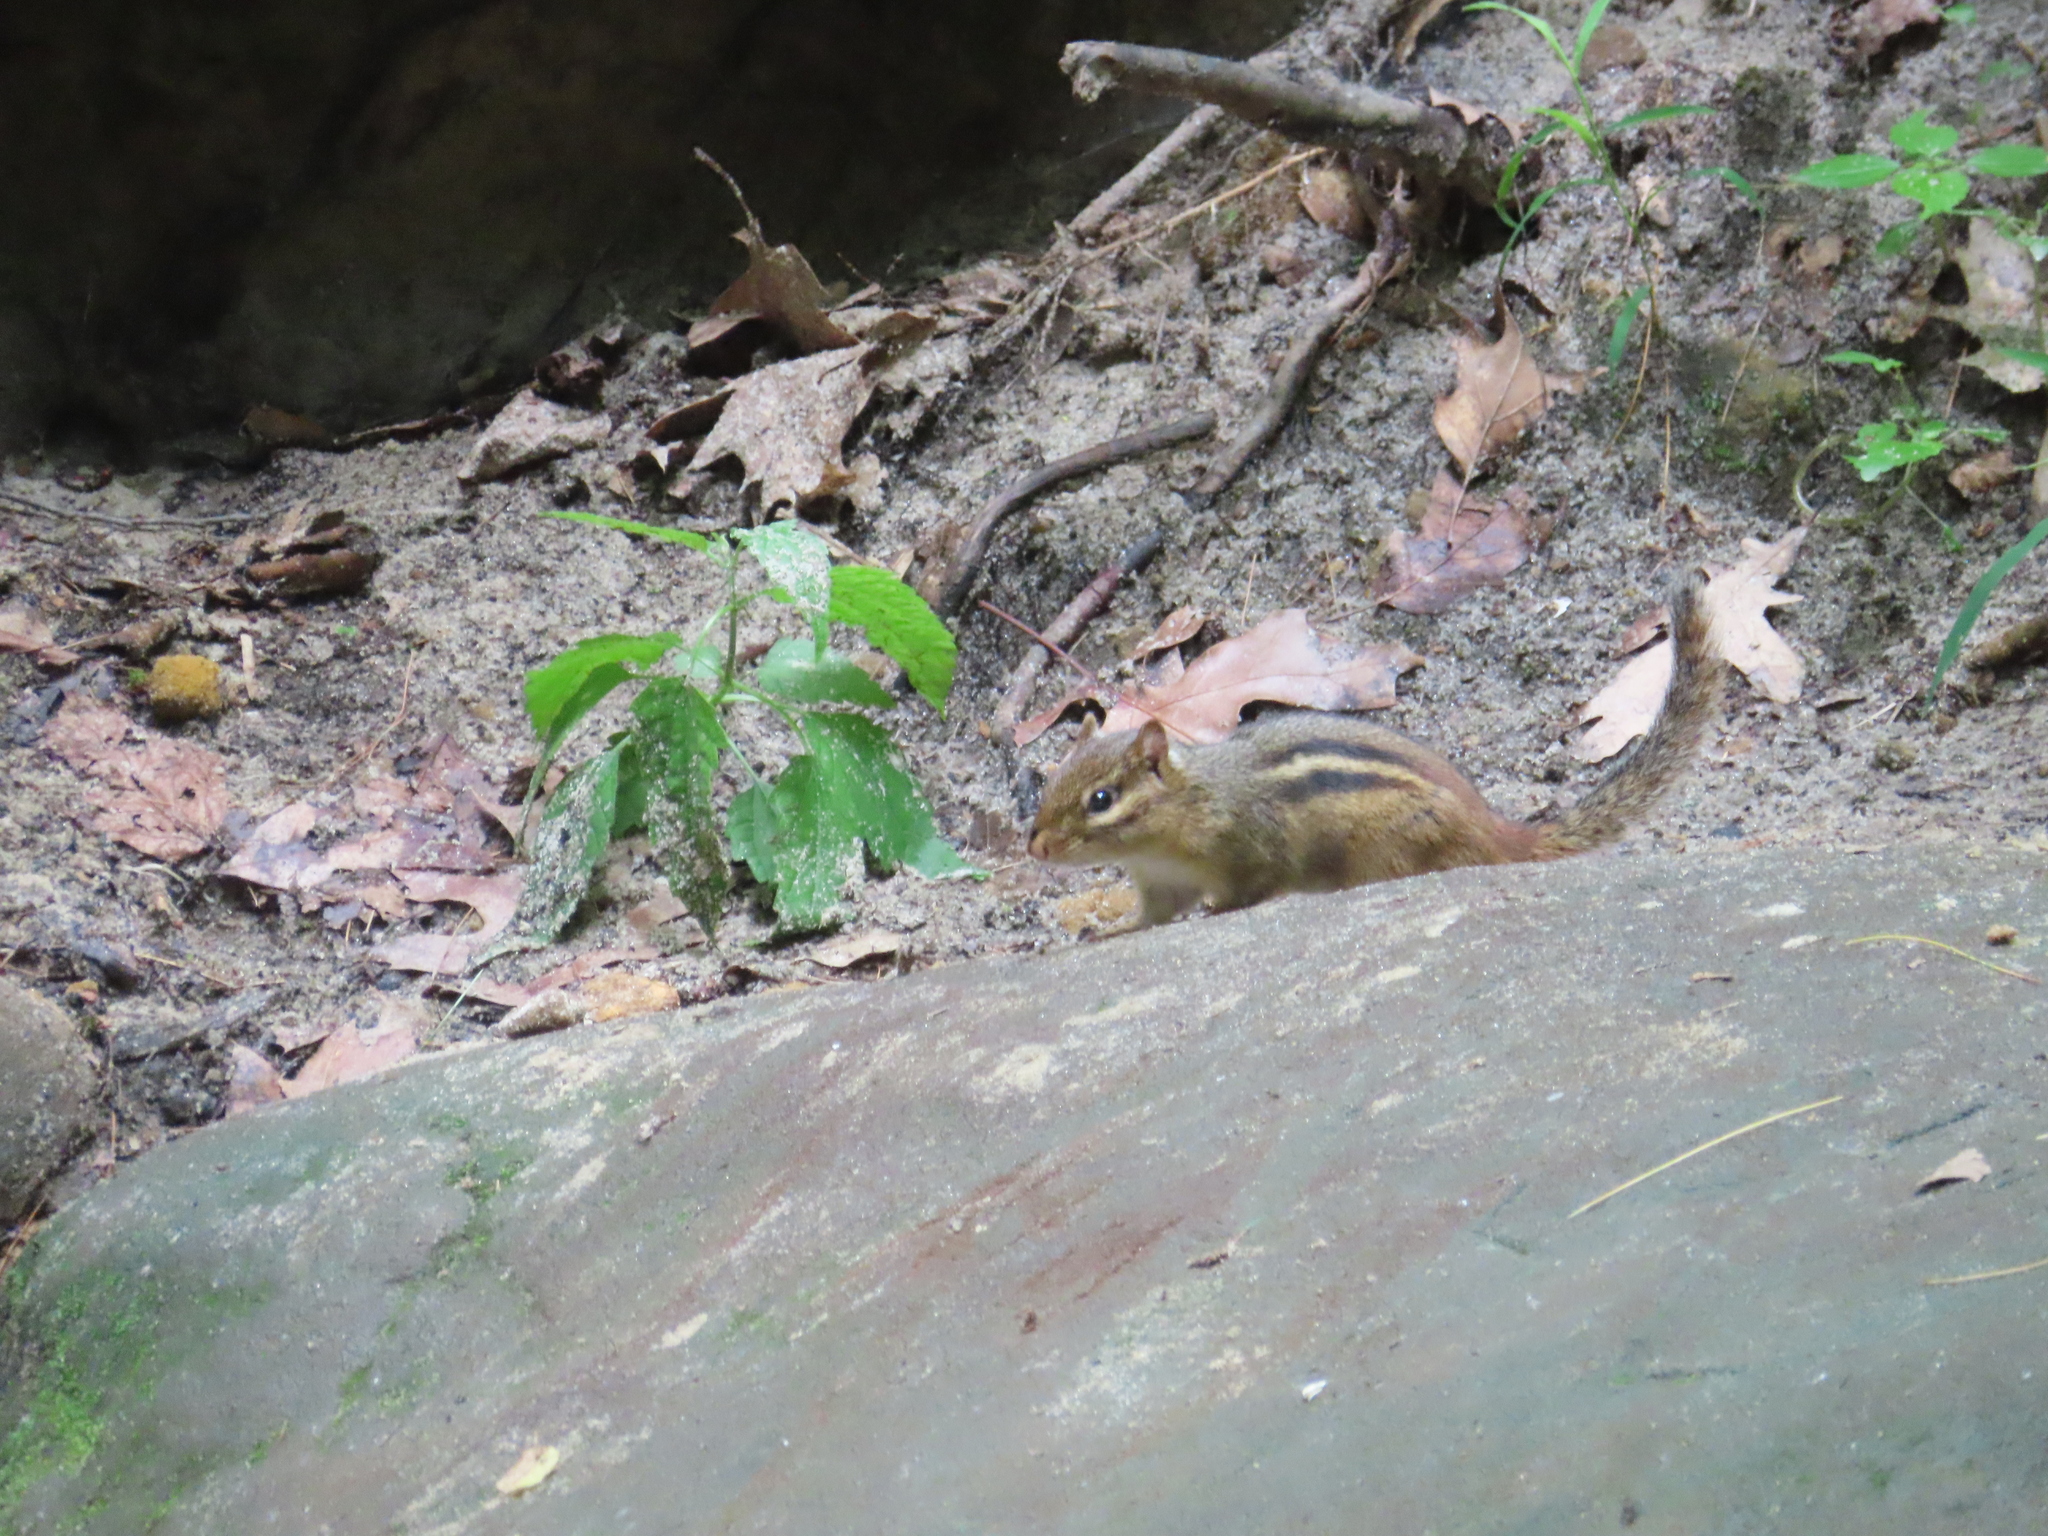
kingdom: Animalia
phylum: Chordata
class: Mammalia
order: Rodentia
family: Sciuridae
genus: Tamias
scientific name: Tamias striatus
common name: Eastern chipmunk
